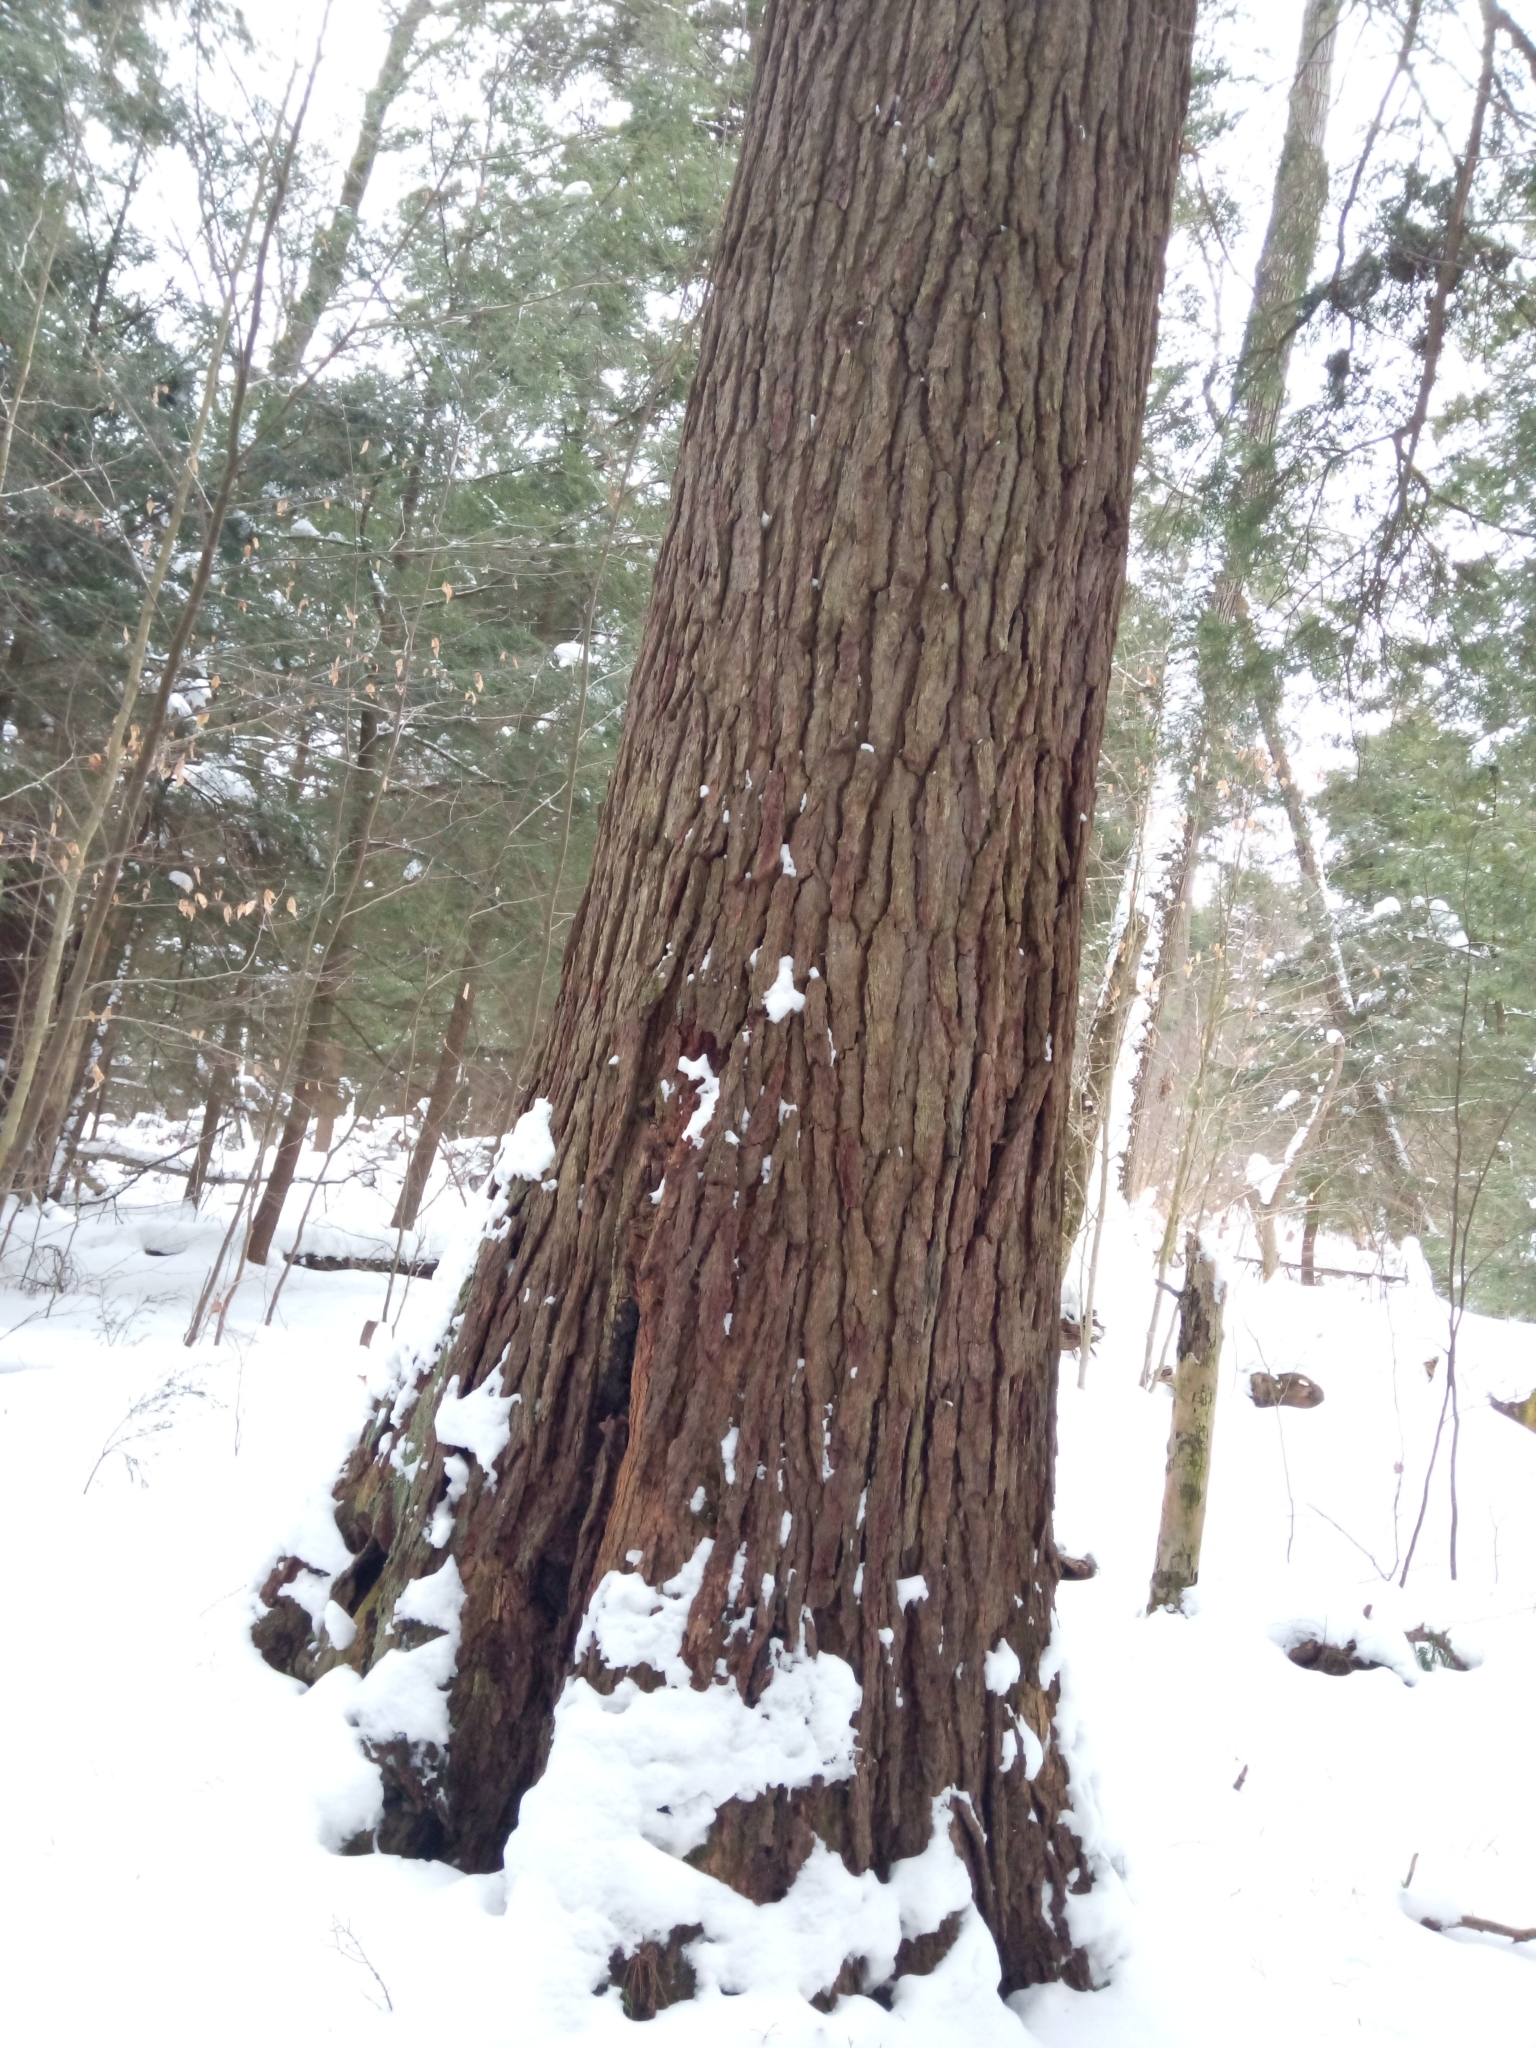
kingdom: Plantae
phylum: Tracheophyta
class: Pinopsida
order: Pinales
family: Pinaceae
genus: Tsuga
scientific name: Tsuga canadensis
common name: Eastern hemlock
